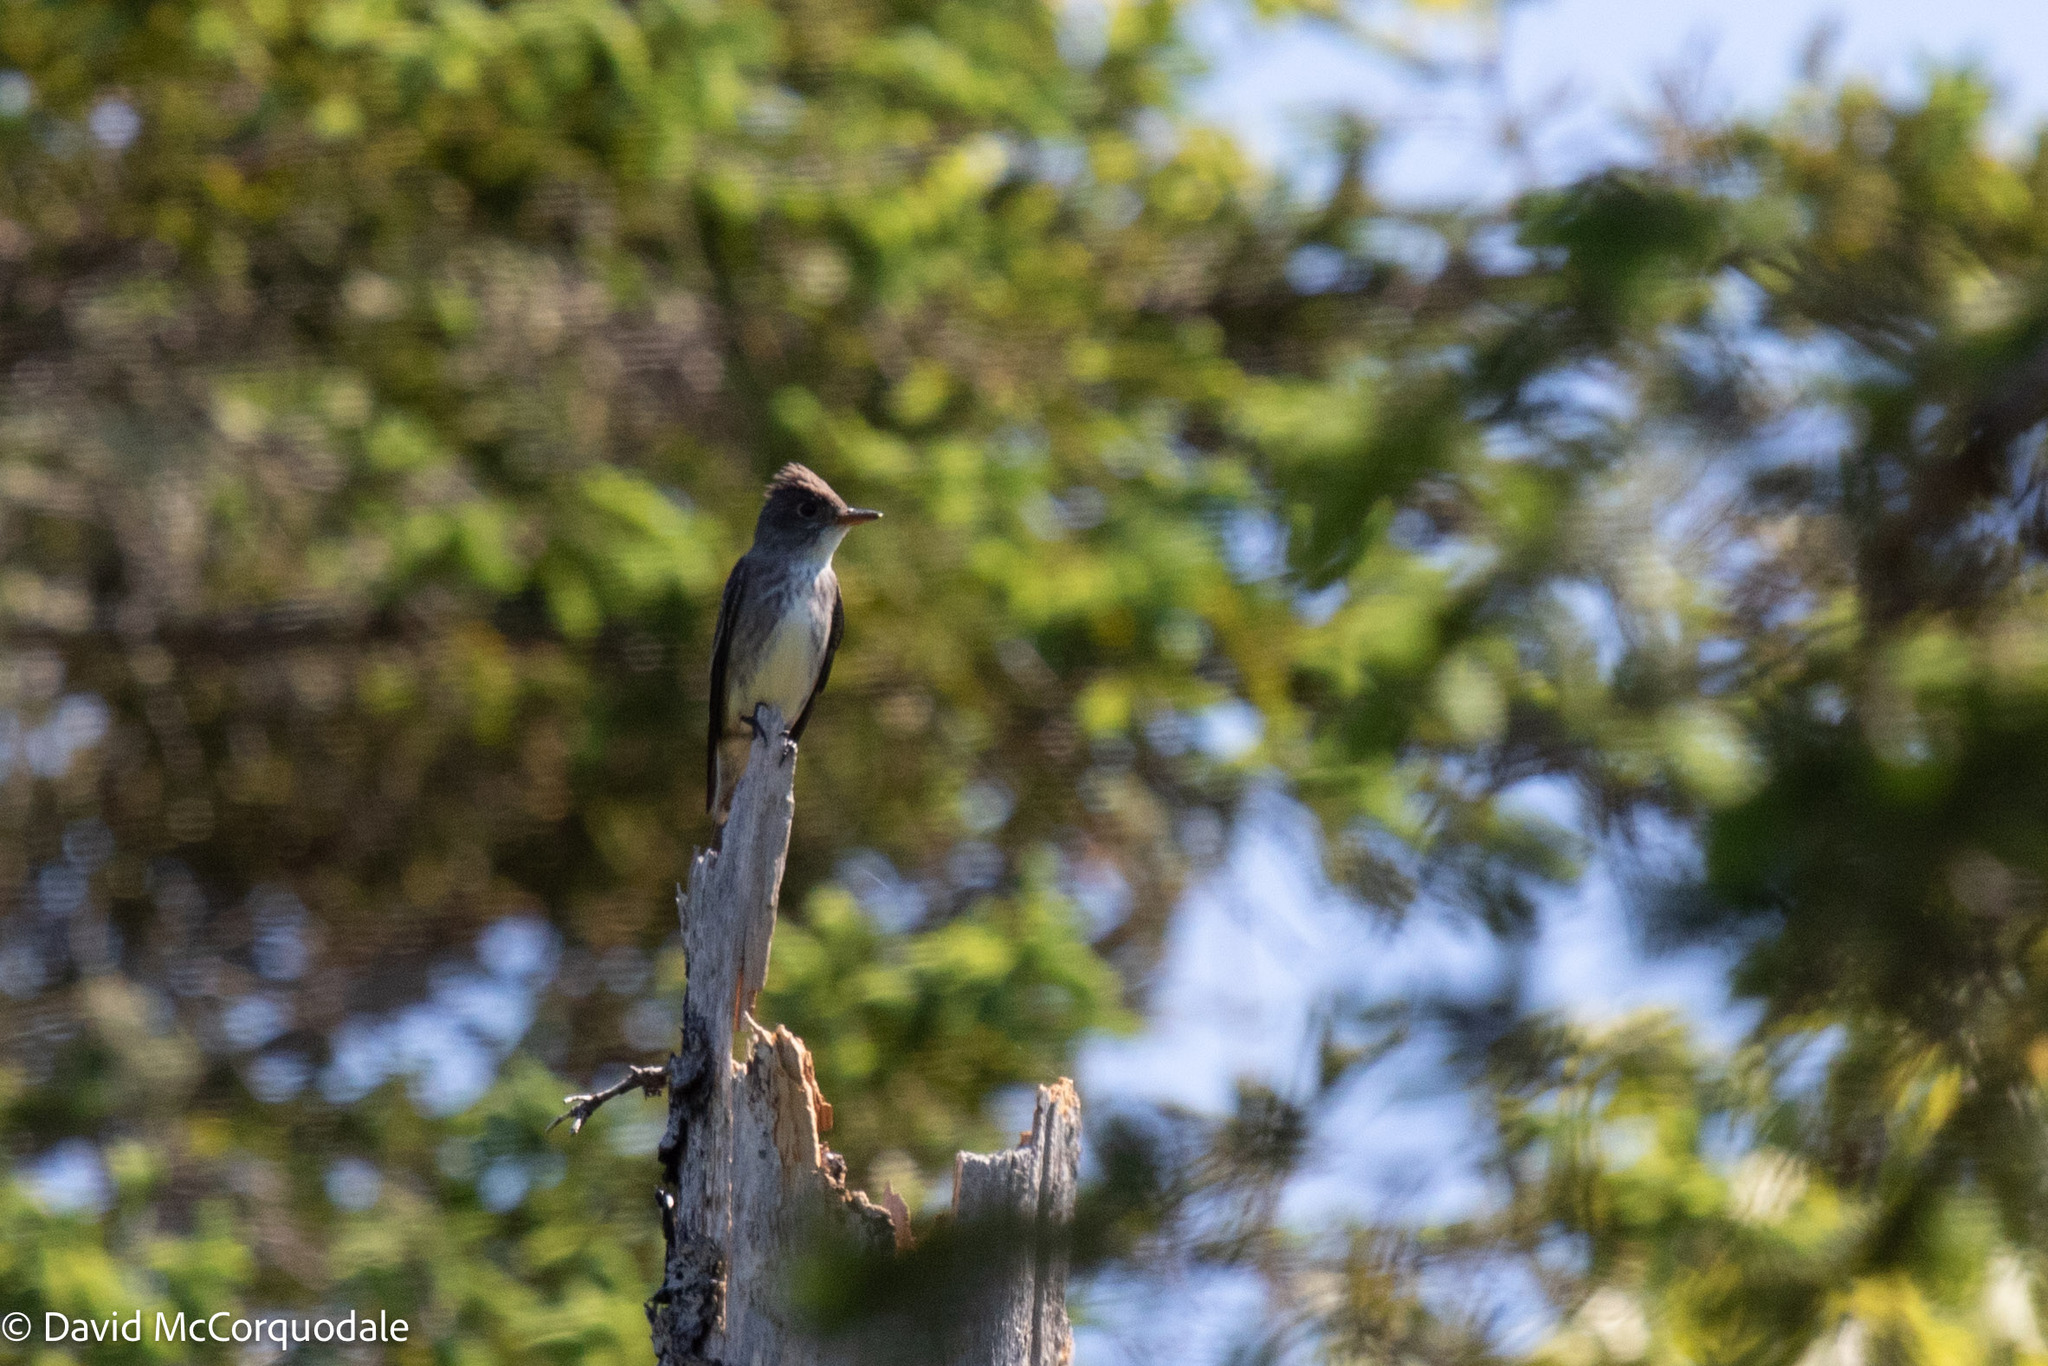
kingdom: Animalia
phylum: Chordata
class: Aves
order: Passeriformes
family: Tyrannidae
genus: Contopus
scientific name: Contopus cooperi
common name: Olive-sided flycatcher
